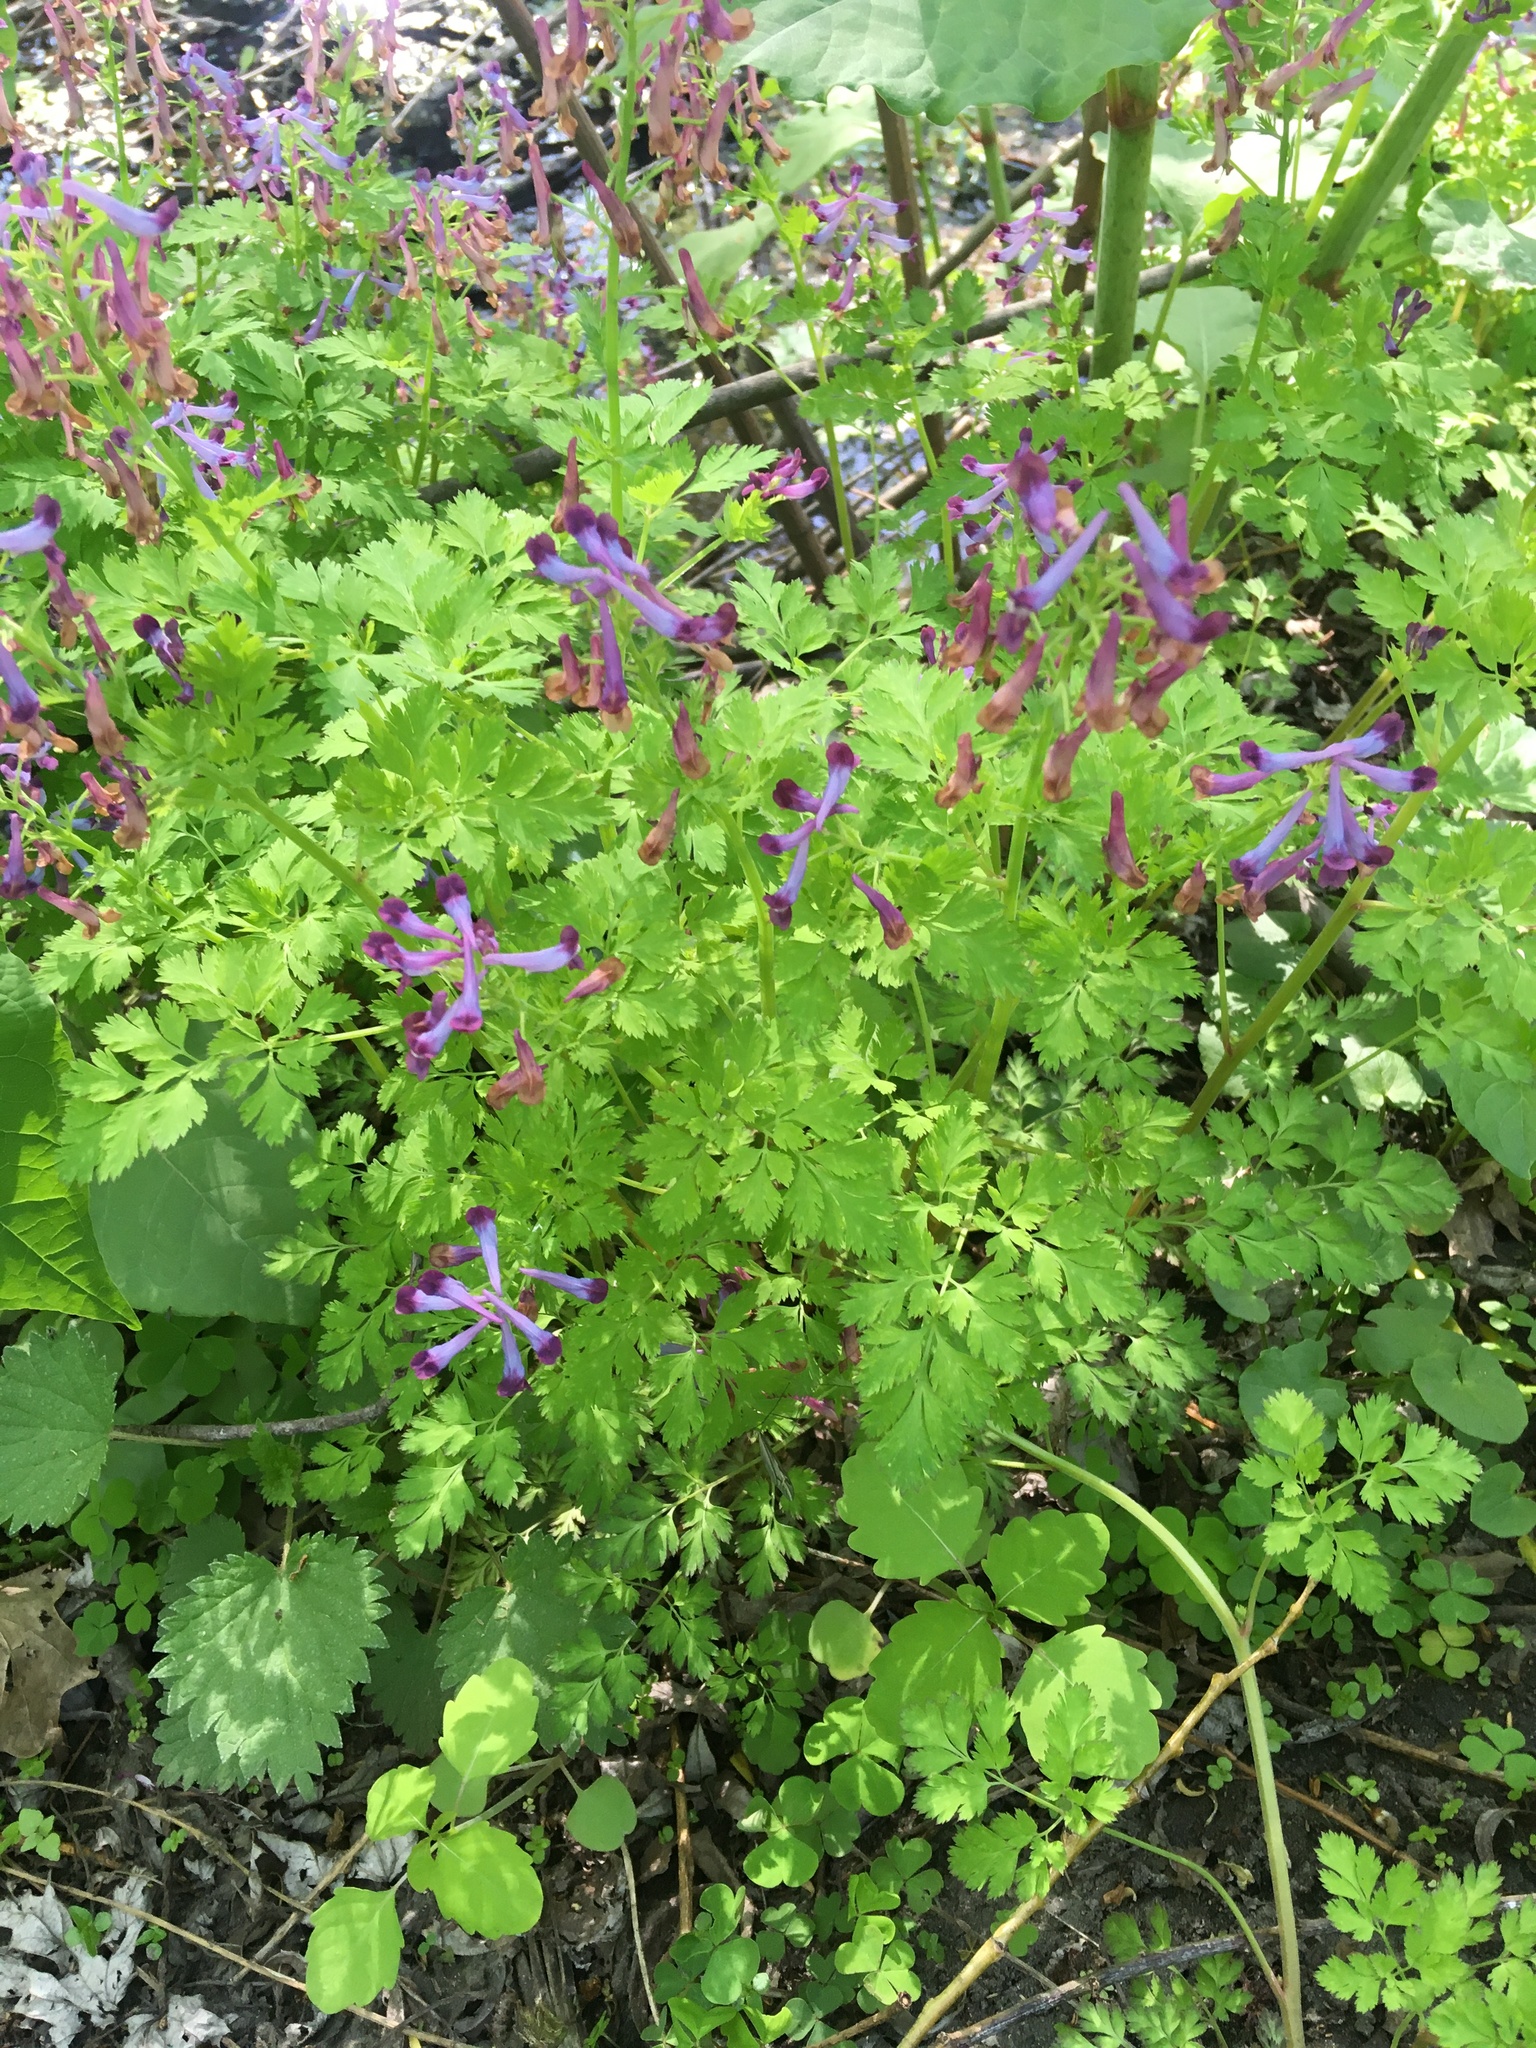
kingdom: Plantae
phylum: Tracheophyta
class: Magnoliopsida
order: Ranunculales
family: Papaveraceae
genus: Corydalis
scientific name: Corydalis incisa
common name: Incised fumewort
